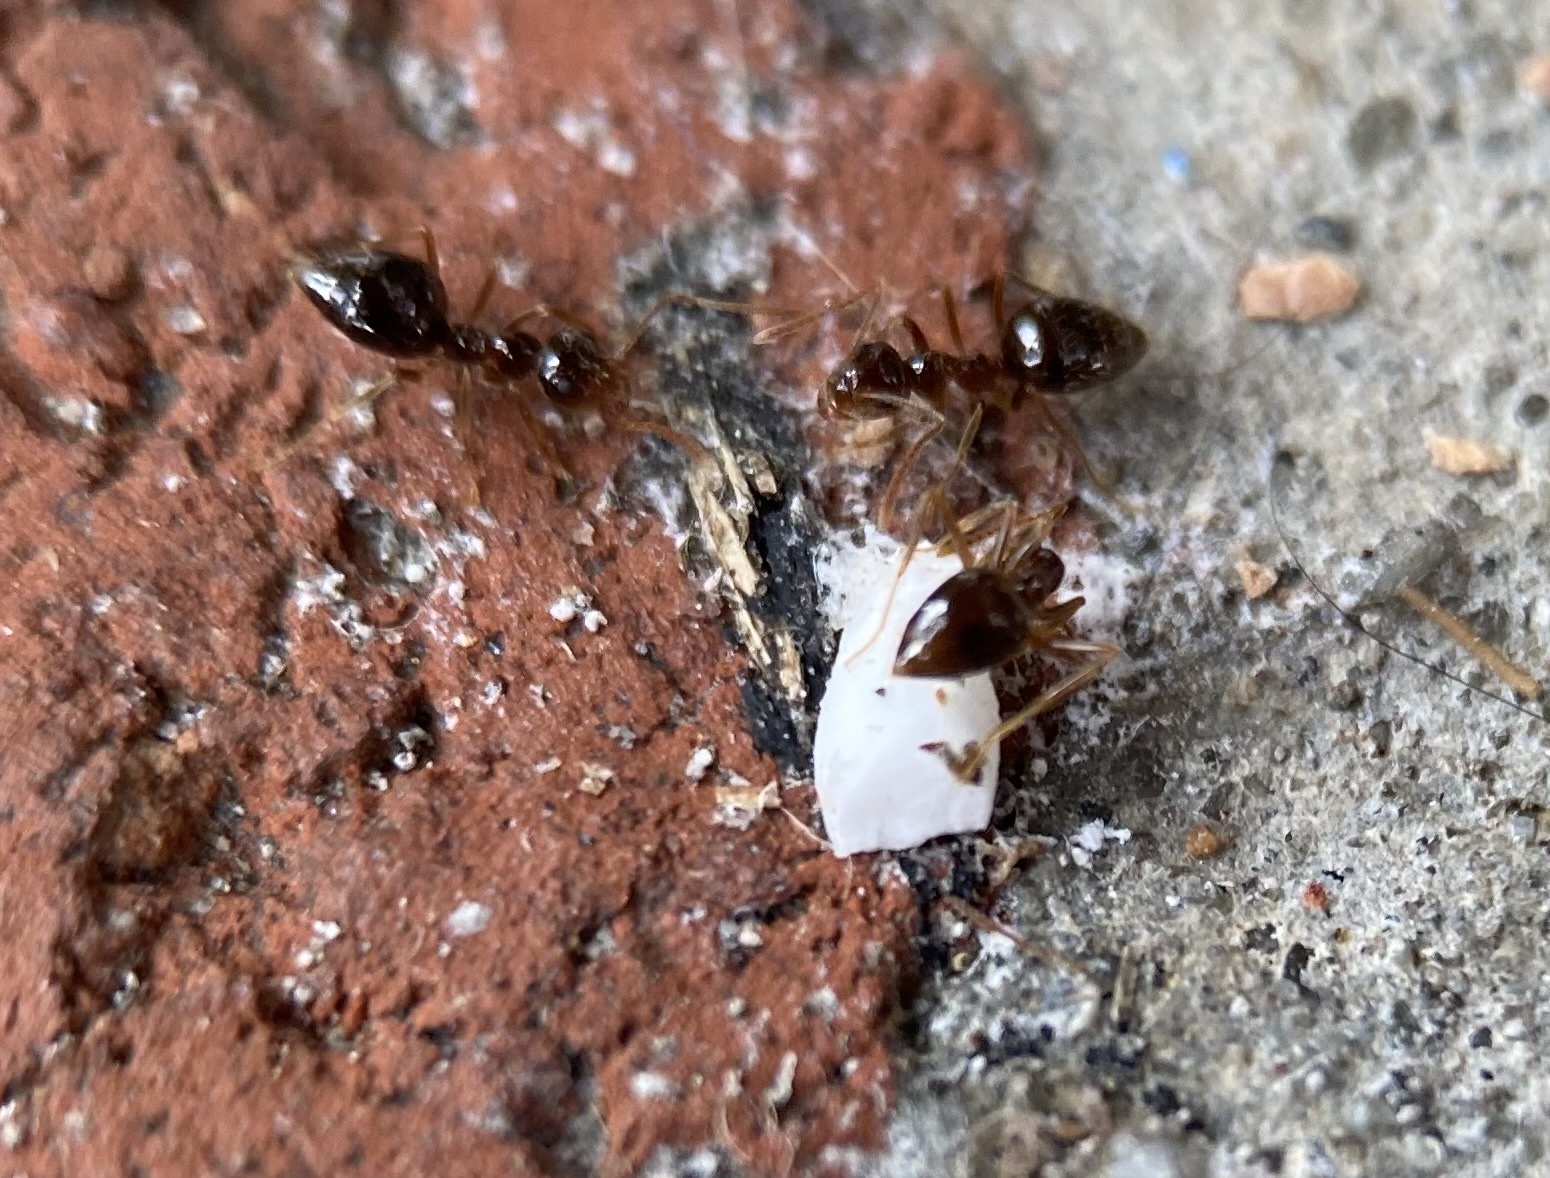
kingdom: Animalia
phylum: Arthropoda
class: Insecta
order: Hymenoptera
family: Formicidae
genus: Prenolepis
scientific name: Prenolepis imparis
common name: Small honey ant
